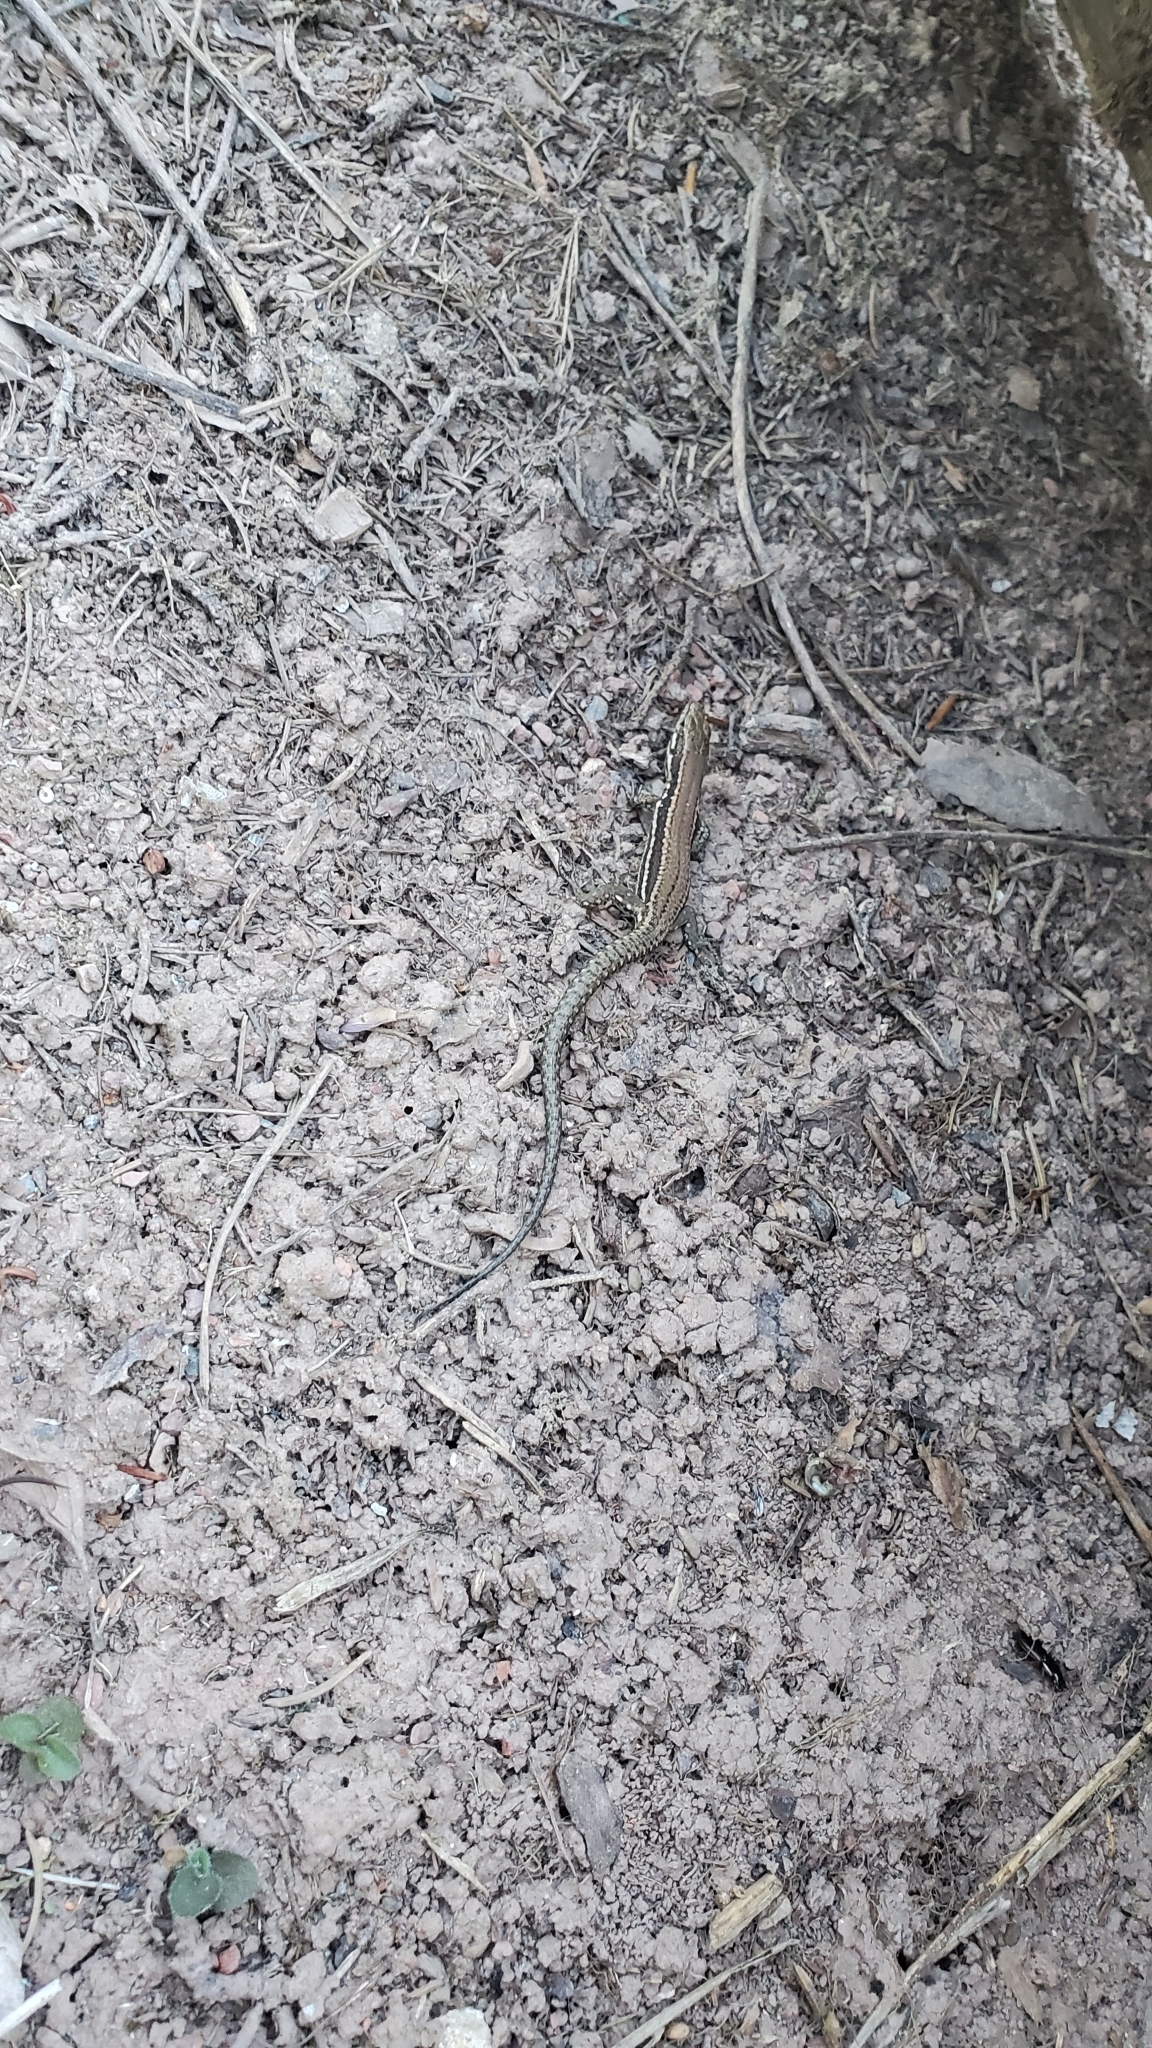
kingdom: Animalia
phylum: Chordata
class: Squamata
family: Lacertidae
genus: Podarcis
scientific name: Podarcis muralis
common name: Common wall lizard
